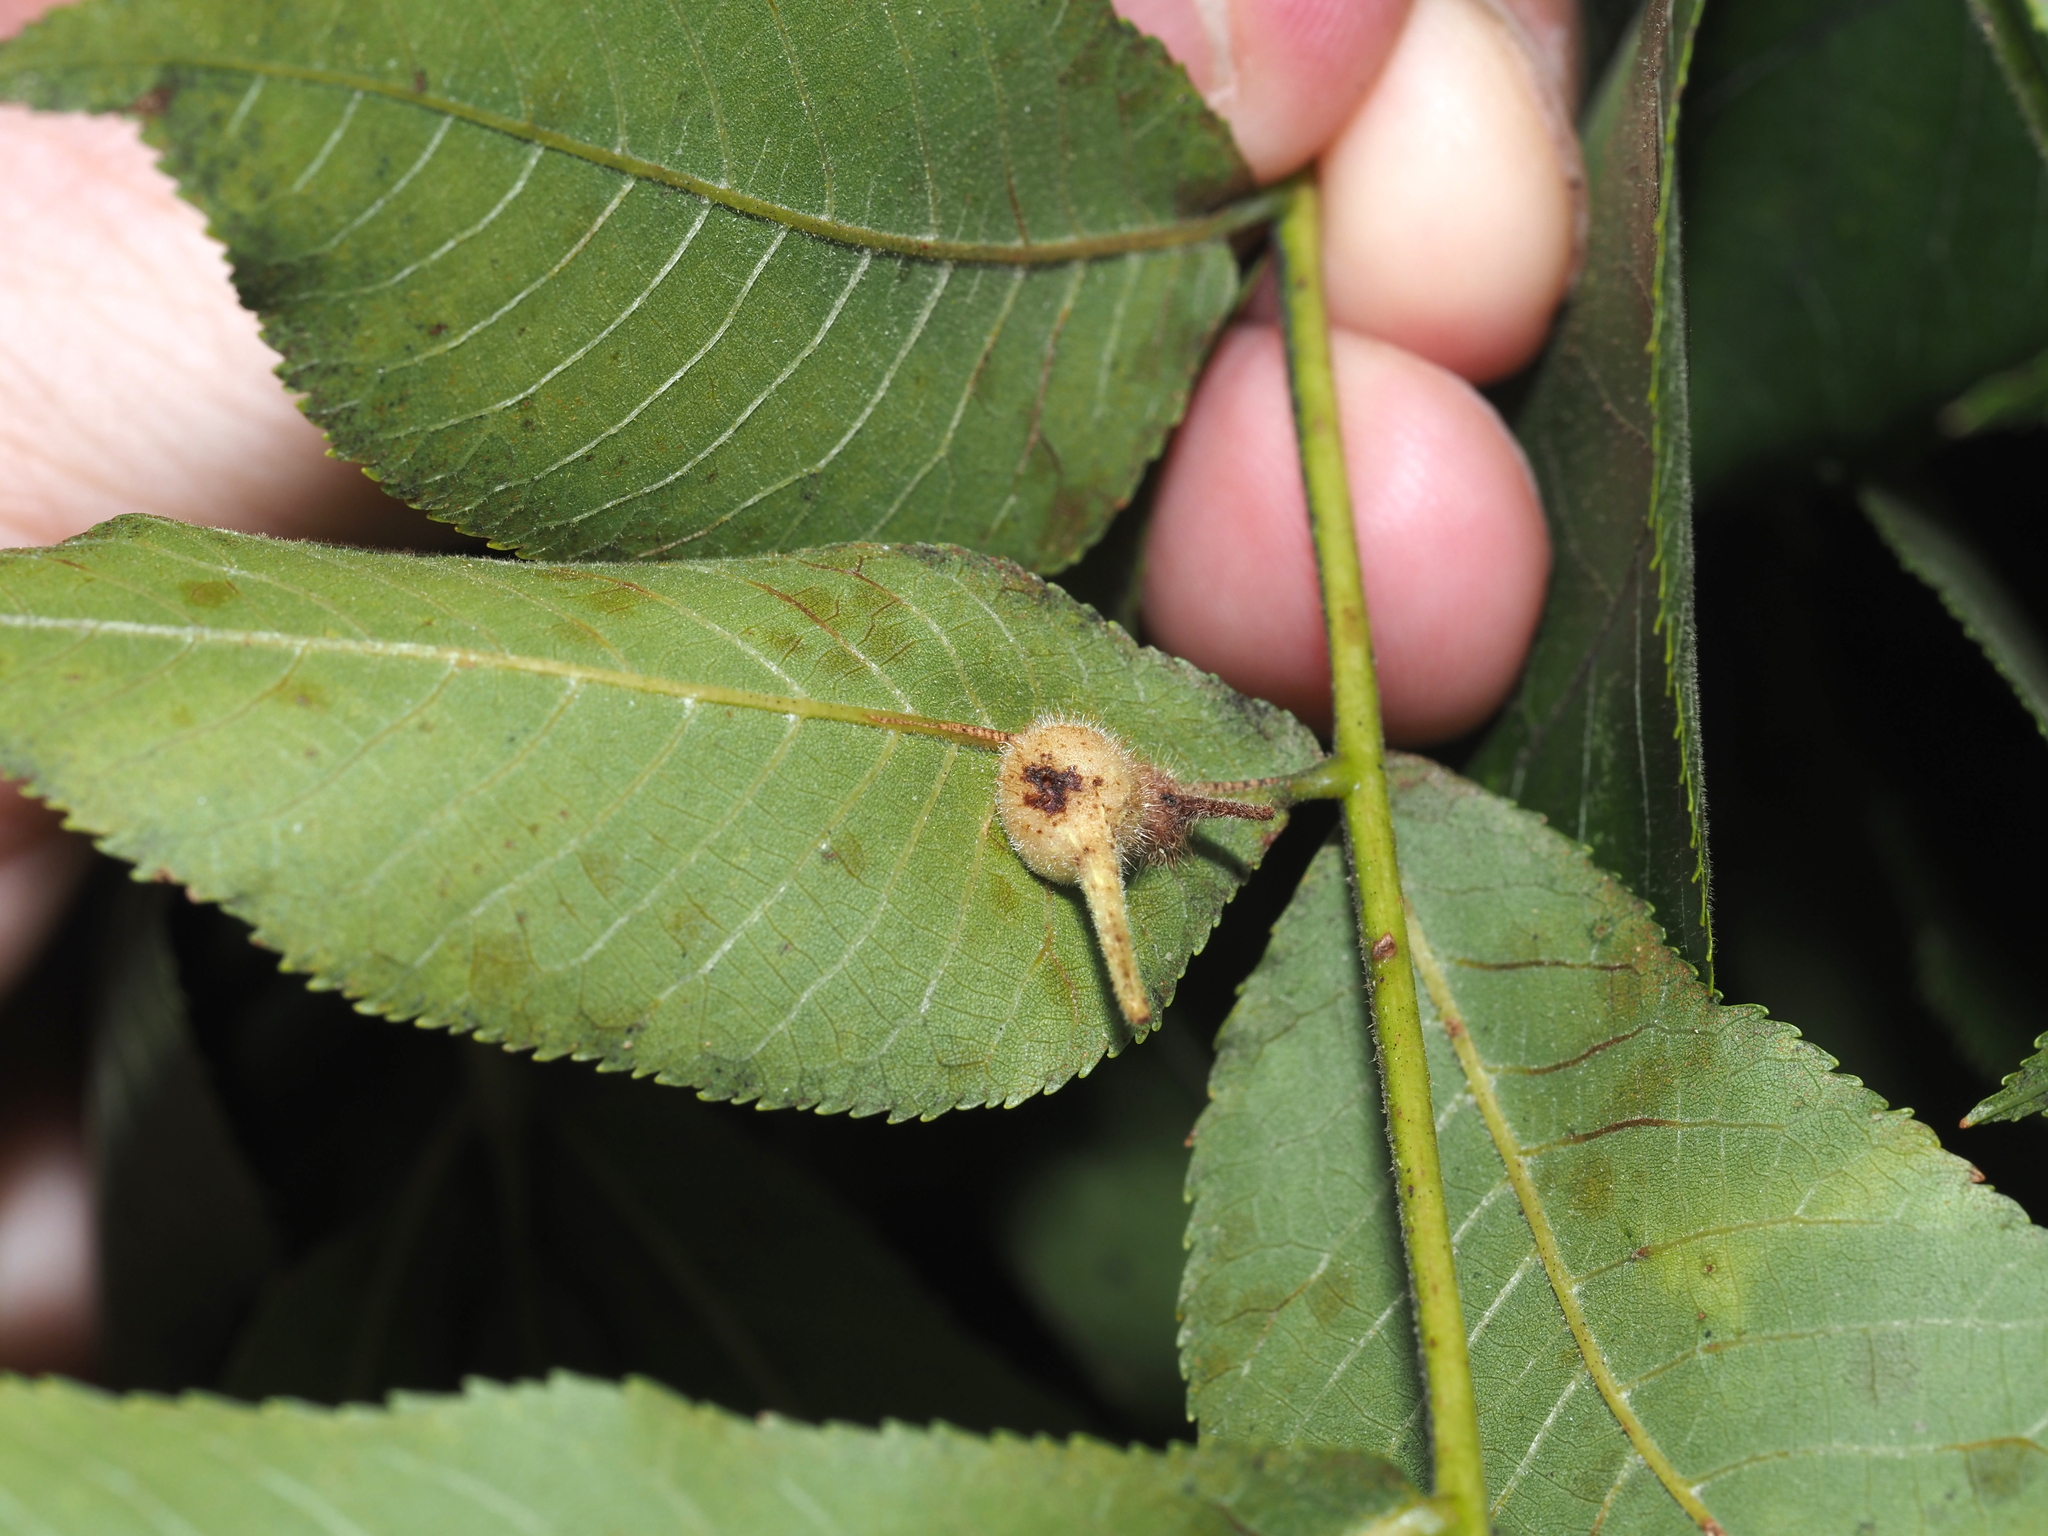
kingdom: Animalia
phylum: Arthropoda
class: Insecta
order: Diptera
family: Cecidomyiidae
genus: Caryomyia
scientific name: Caryomyia ansericollum
